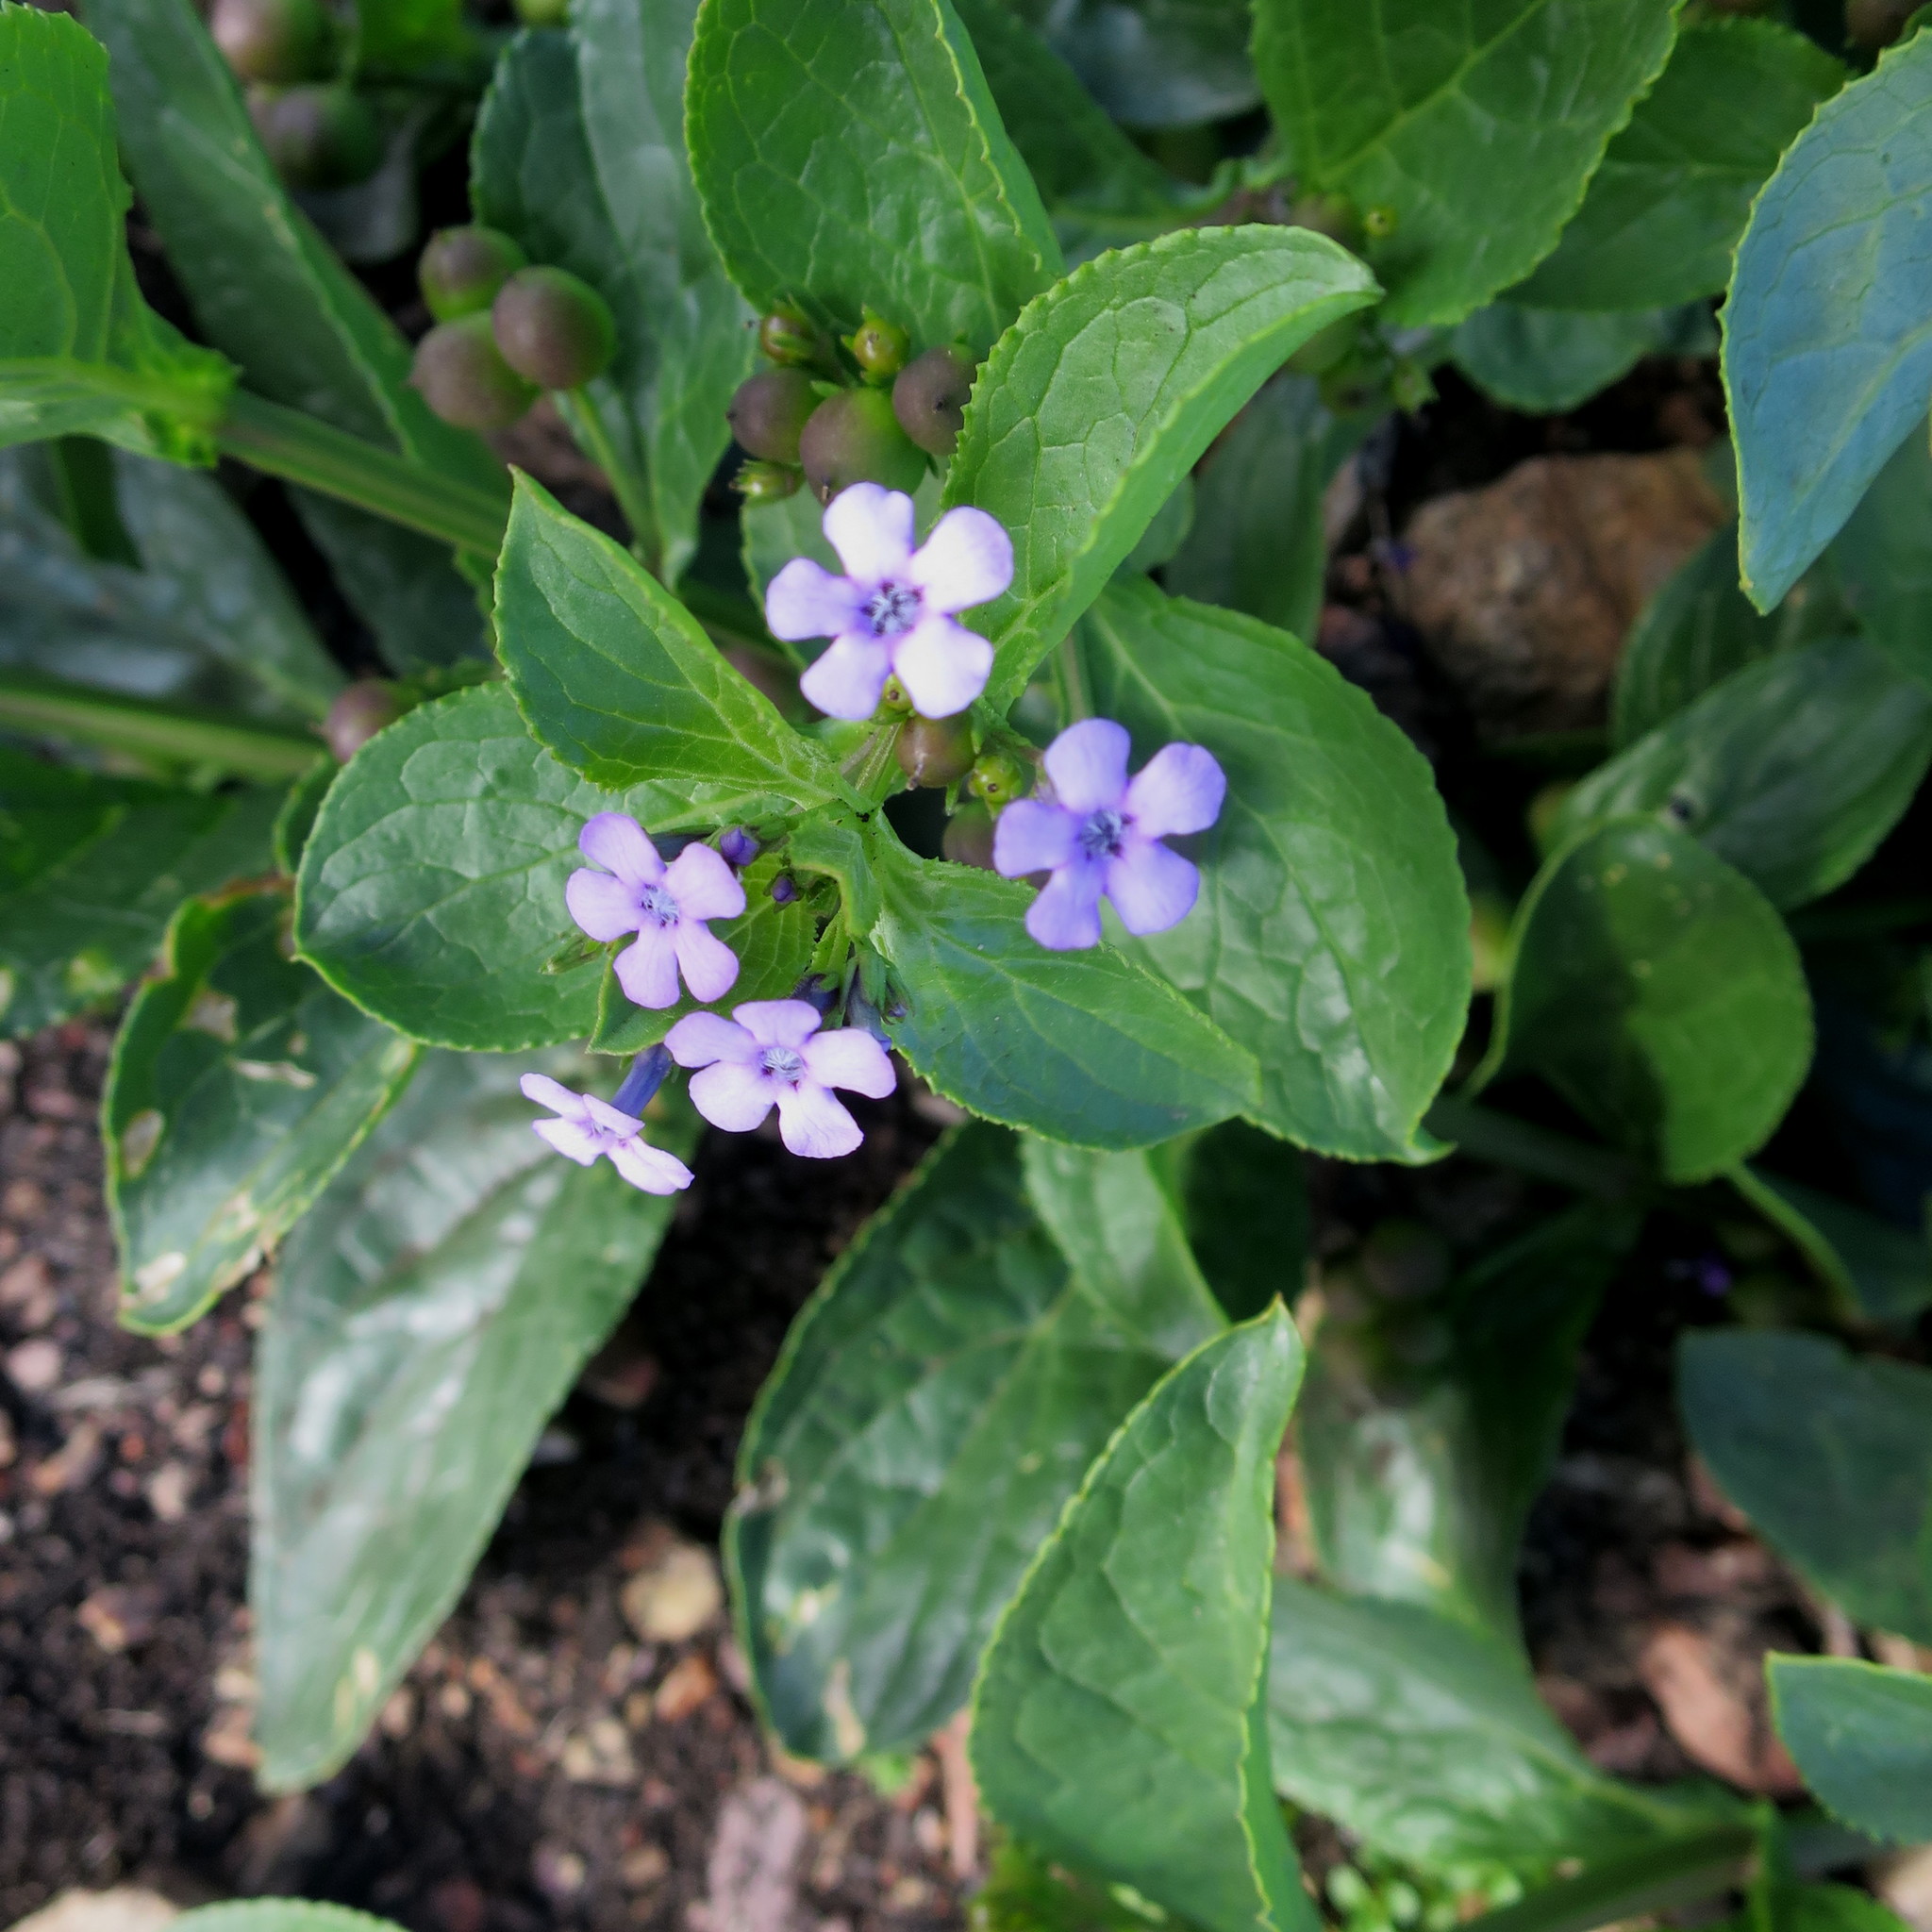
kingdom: Plantae
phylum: Tracheophyta
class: Magnoliopsida
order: Lamiales
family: Scrophulariaceae
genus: Teedia
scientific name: Teedia lucida
